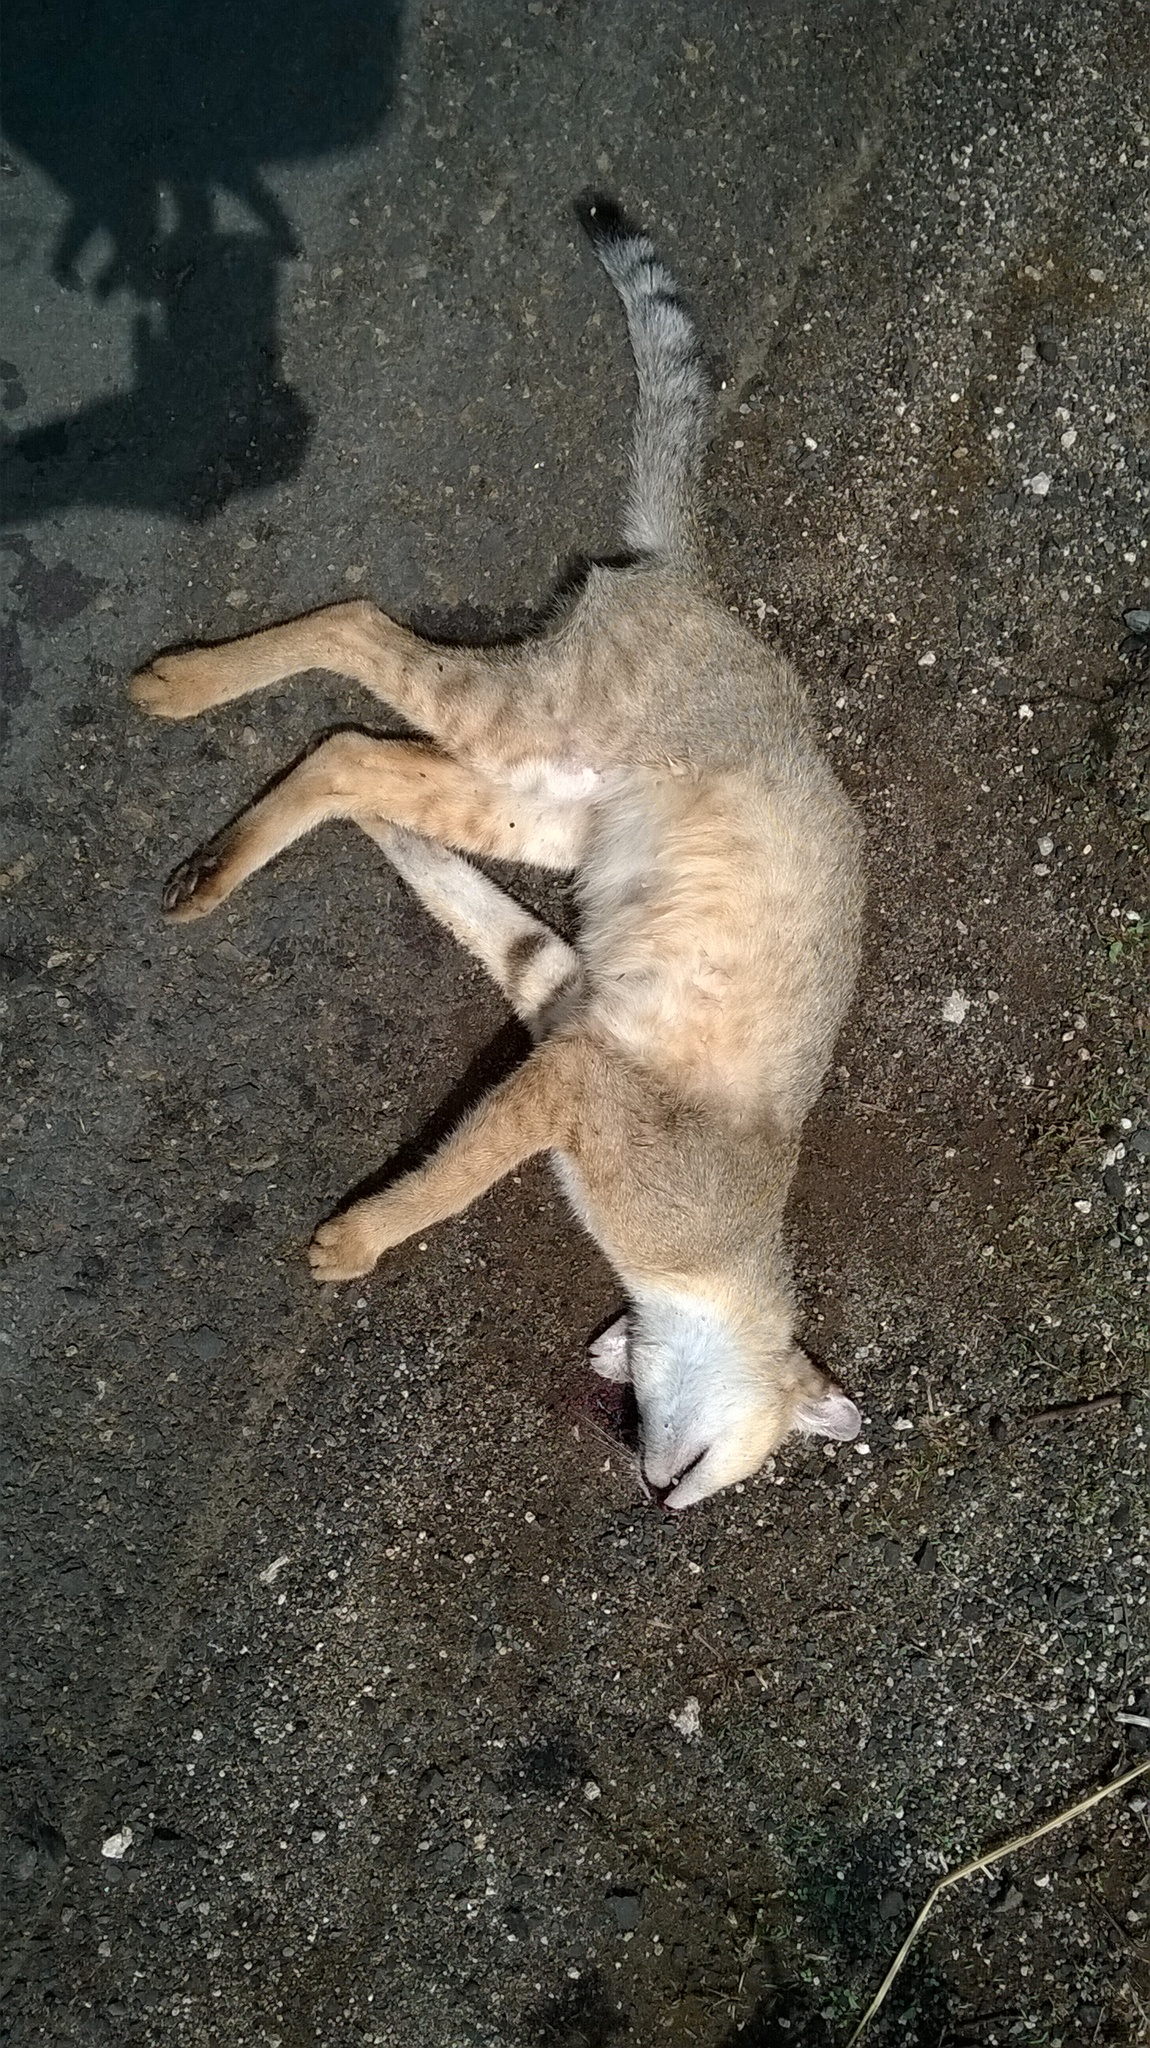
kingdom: Animalia
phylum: Chordata
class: Mammalia
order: Carnivora
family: Felidae
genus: Felis
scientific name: Felis chaus
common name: Jungle cat
